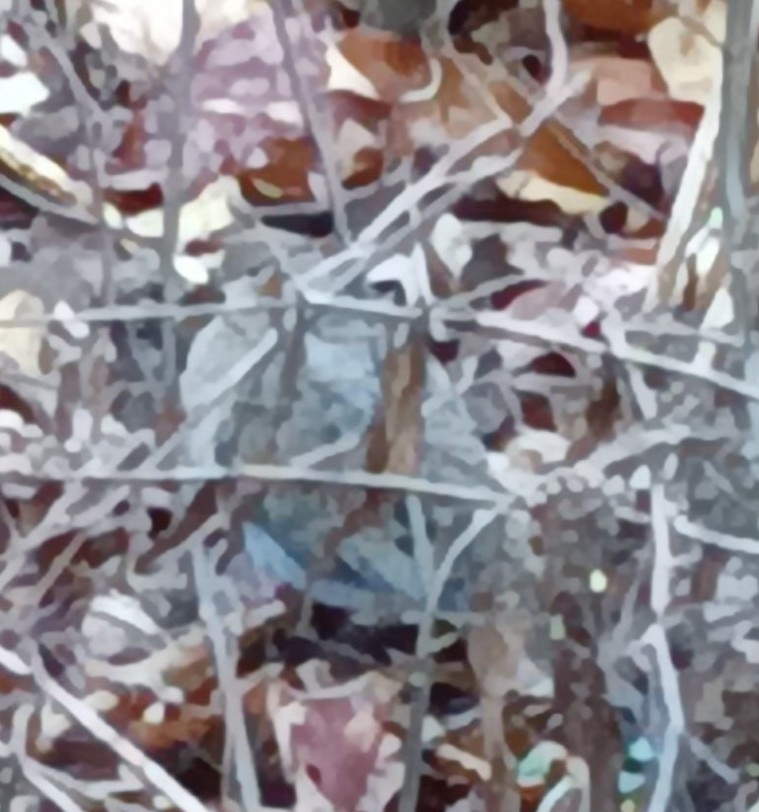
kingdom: Animalia
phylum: Chordata
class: Aves
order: Columbiformes
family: Columbidae
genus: Zenaida
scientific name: Zenaida macroura
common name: Mourning dove
